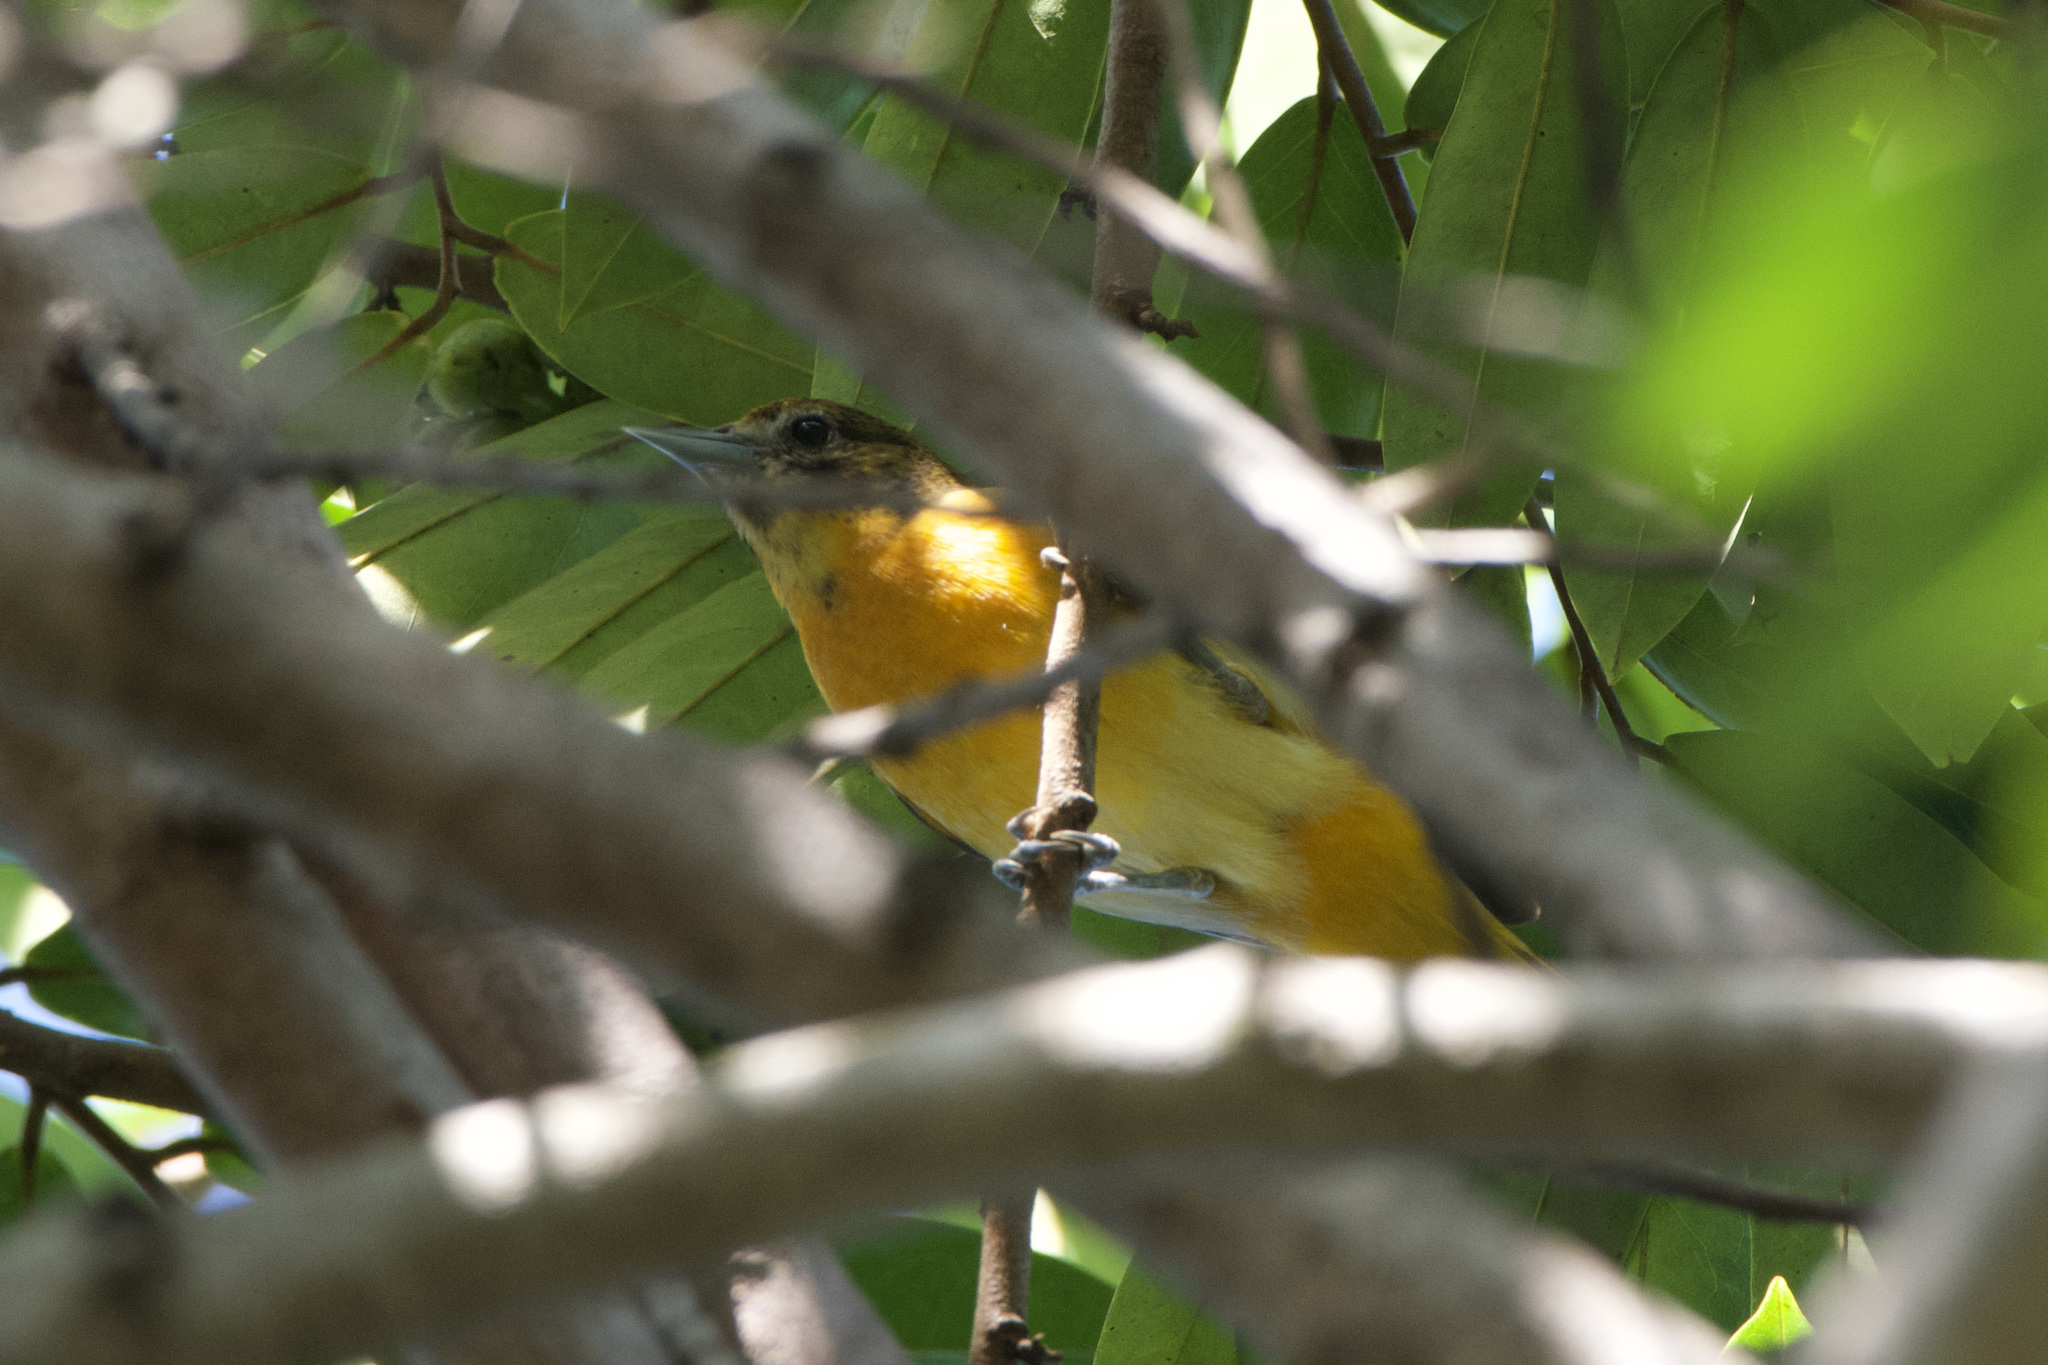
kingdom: Animalia
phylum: Chordata
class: Aves
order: Passeriformes
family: Icteridae
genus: Icterus
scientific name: Icterus galbula
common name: Baltimore oriole
